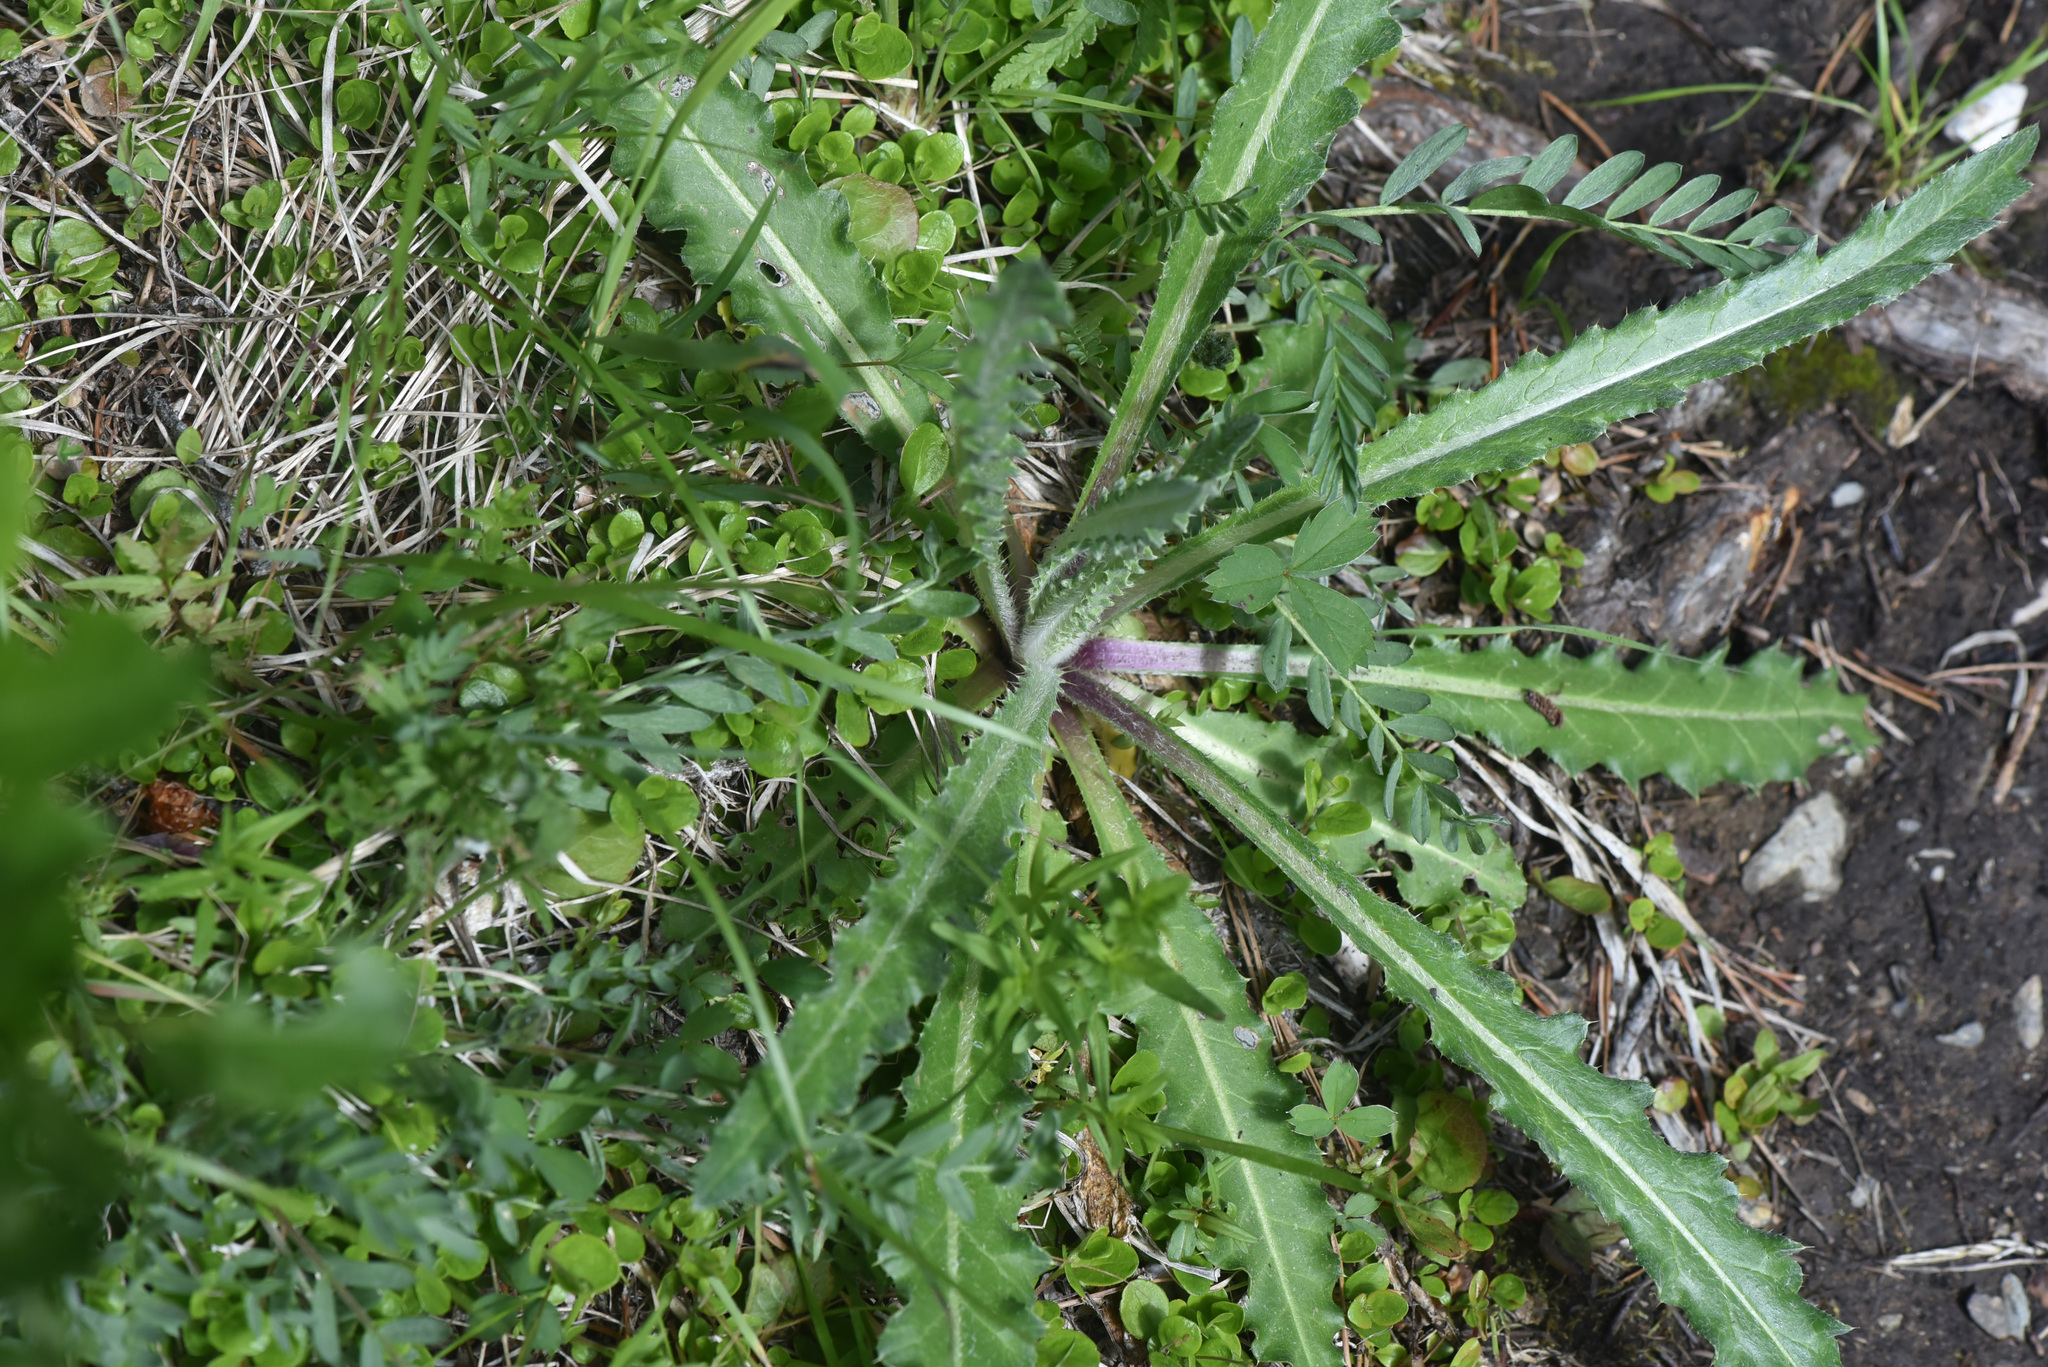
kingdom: Plantae
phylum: Tracheophyta
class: Magnoliopsida
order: Asterales
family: Asteraceae
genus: Cirsium
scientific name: Cirsium hookerianum
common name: Hooker's thistle
